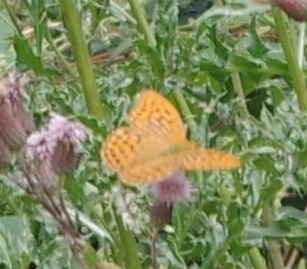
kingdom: Animalia
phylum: Arthropoda
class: Insecta
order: Lepidoptera
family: Nymphalidae
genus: Argynnis
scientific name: Argynnis paphia
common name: Silver-washed fritillary
